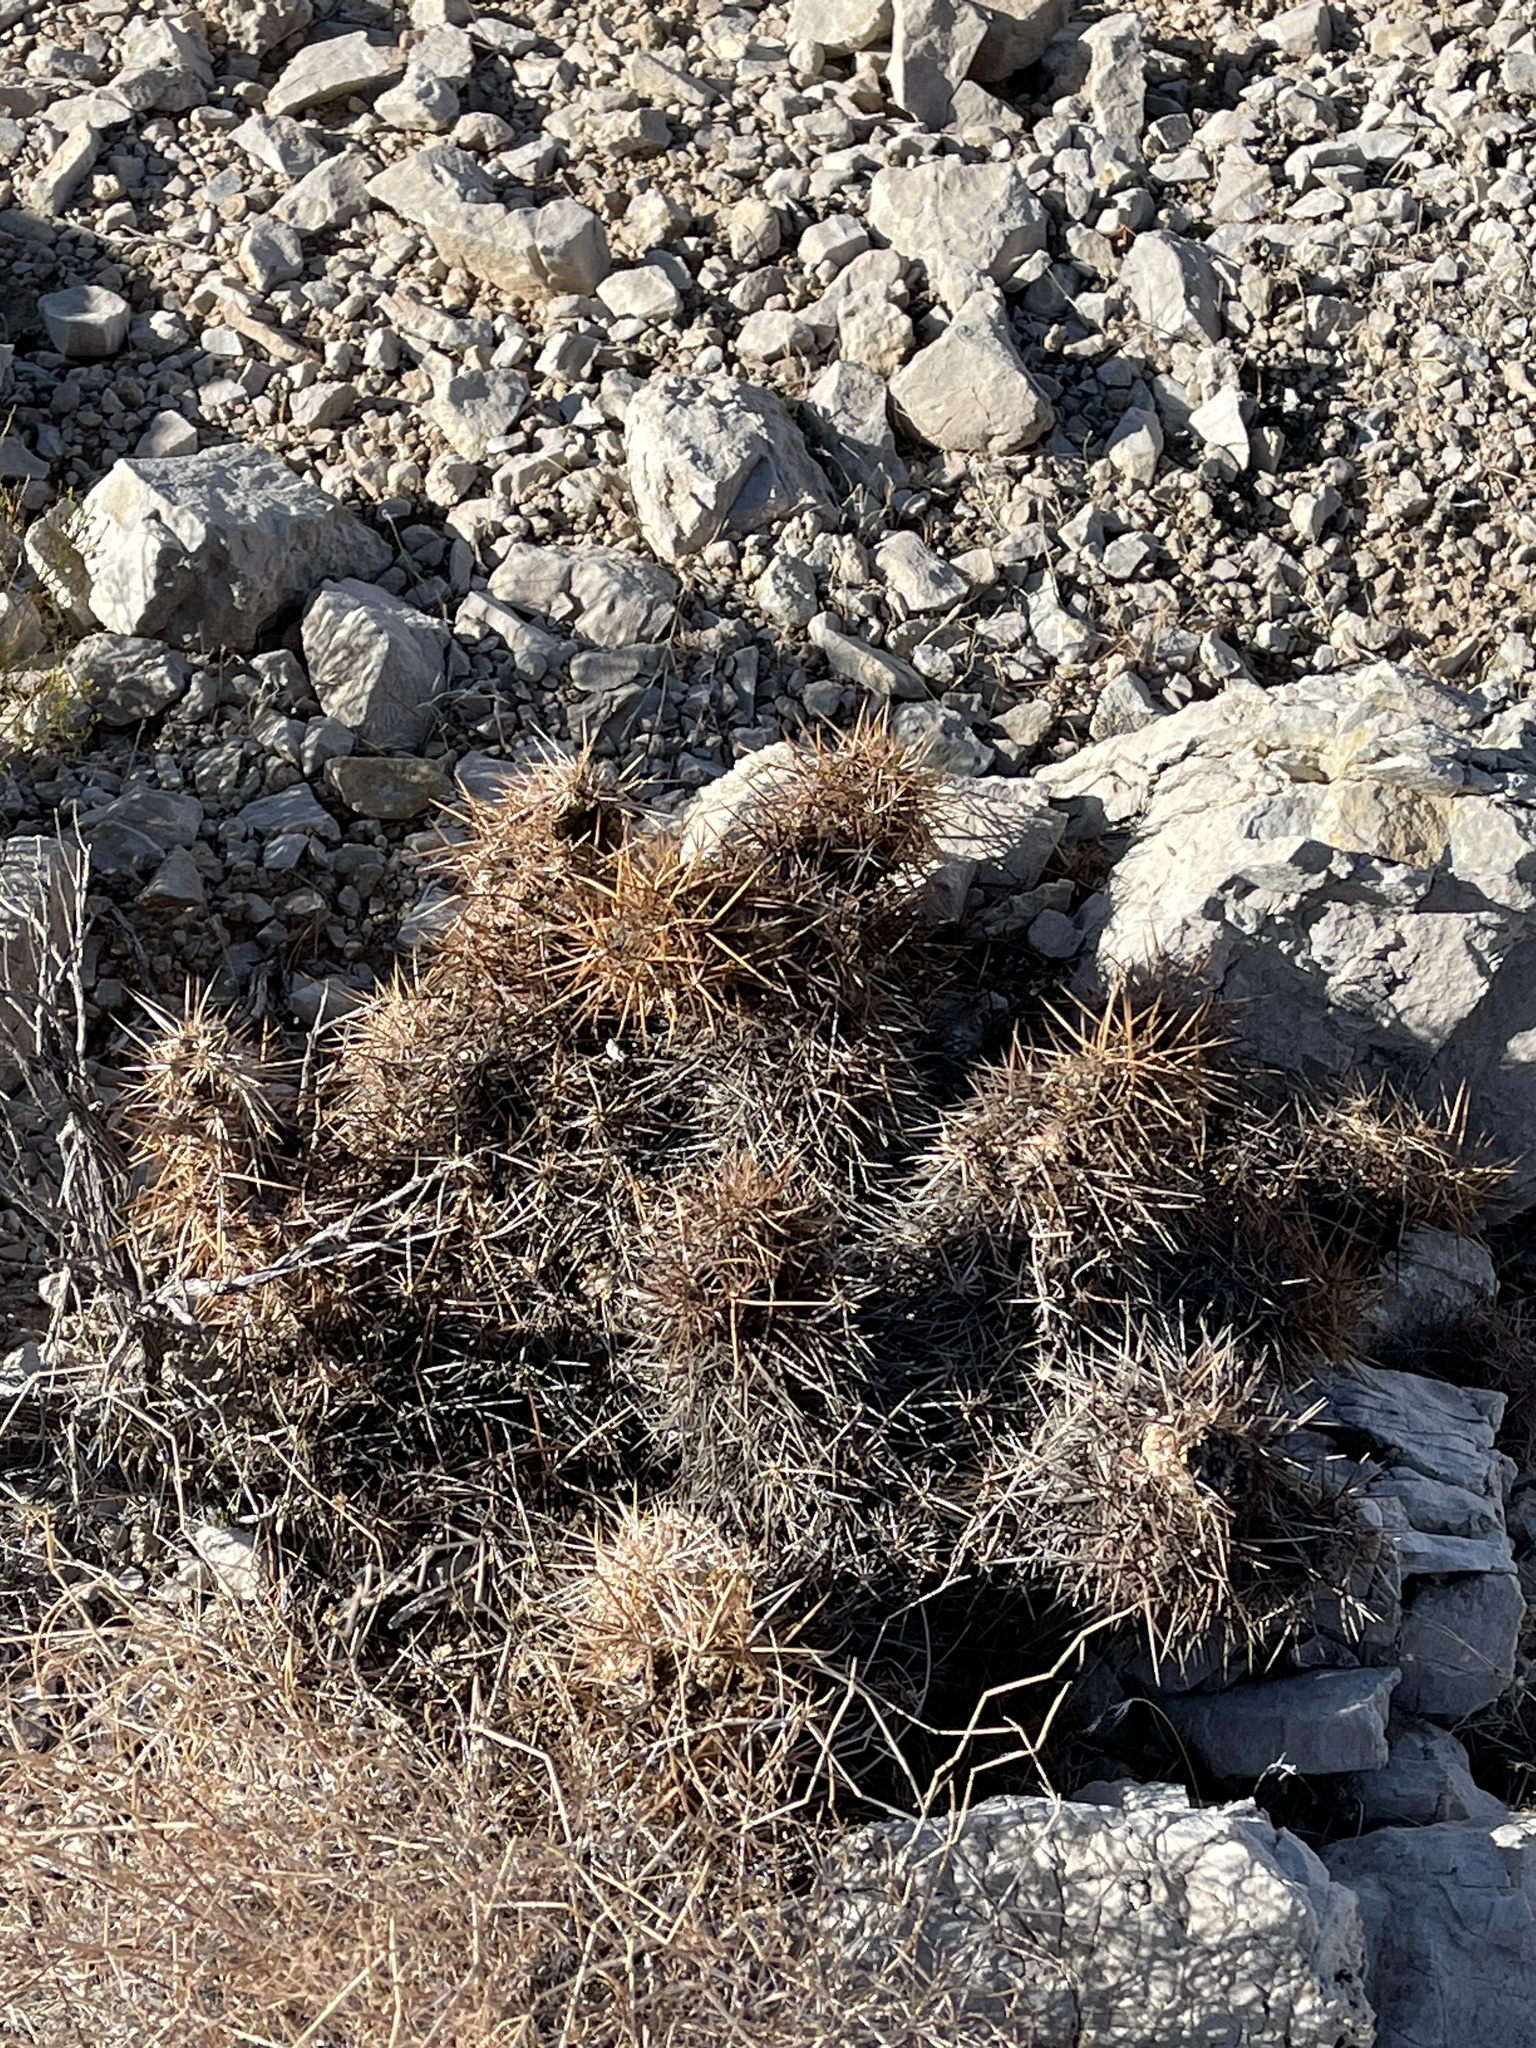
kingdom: Plantae
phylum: Tracheophyta
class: Magnoliopsida
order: Caryophyllales
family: Cactaceae
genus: Echinocereus
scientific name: Echinocereus engelmannii
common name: Engelmann's hedgehog cactus
